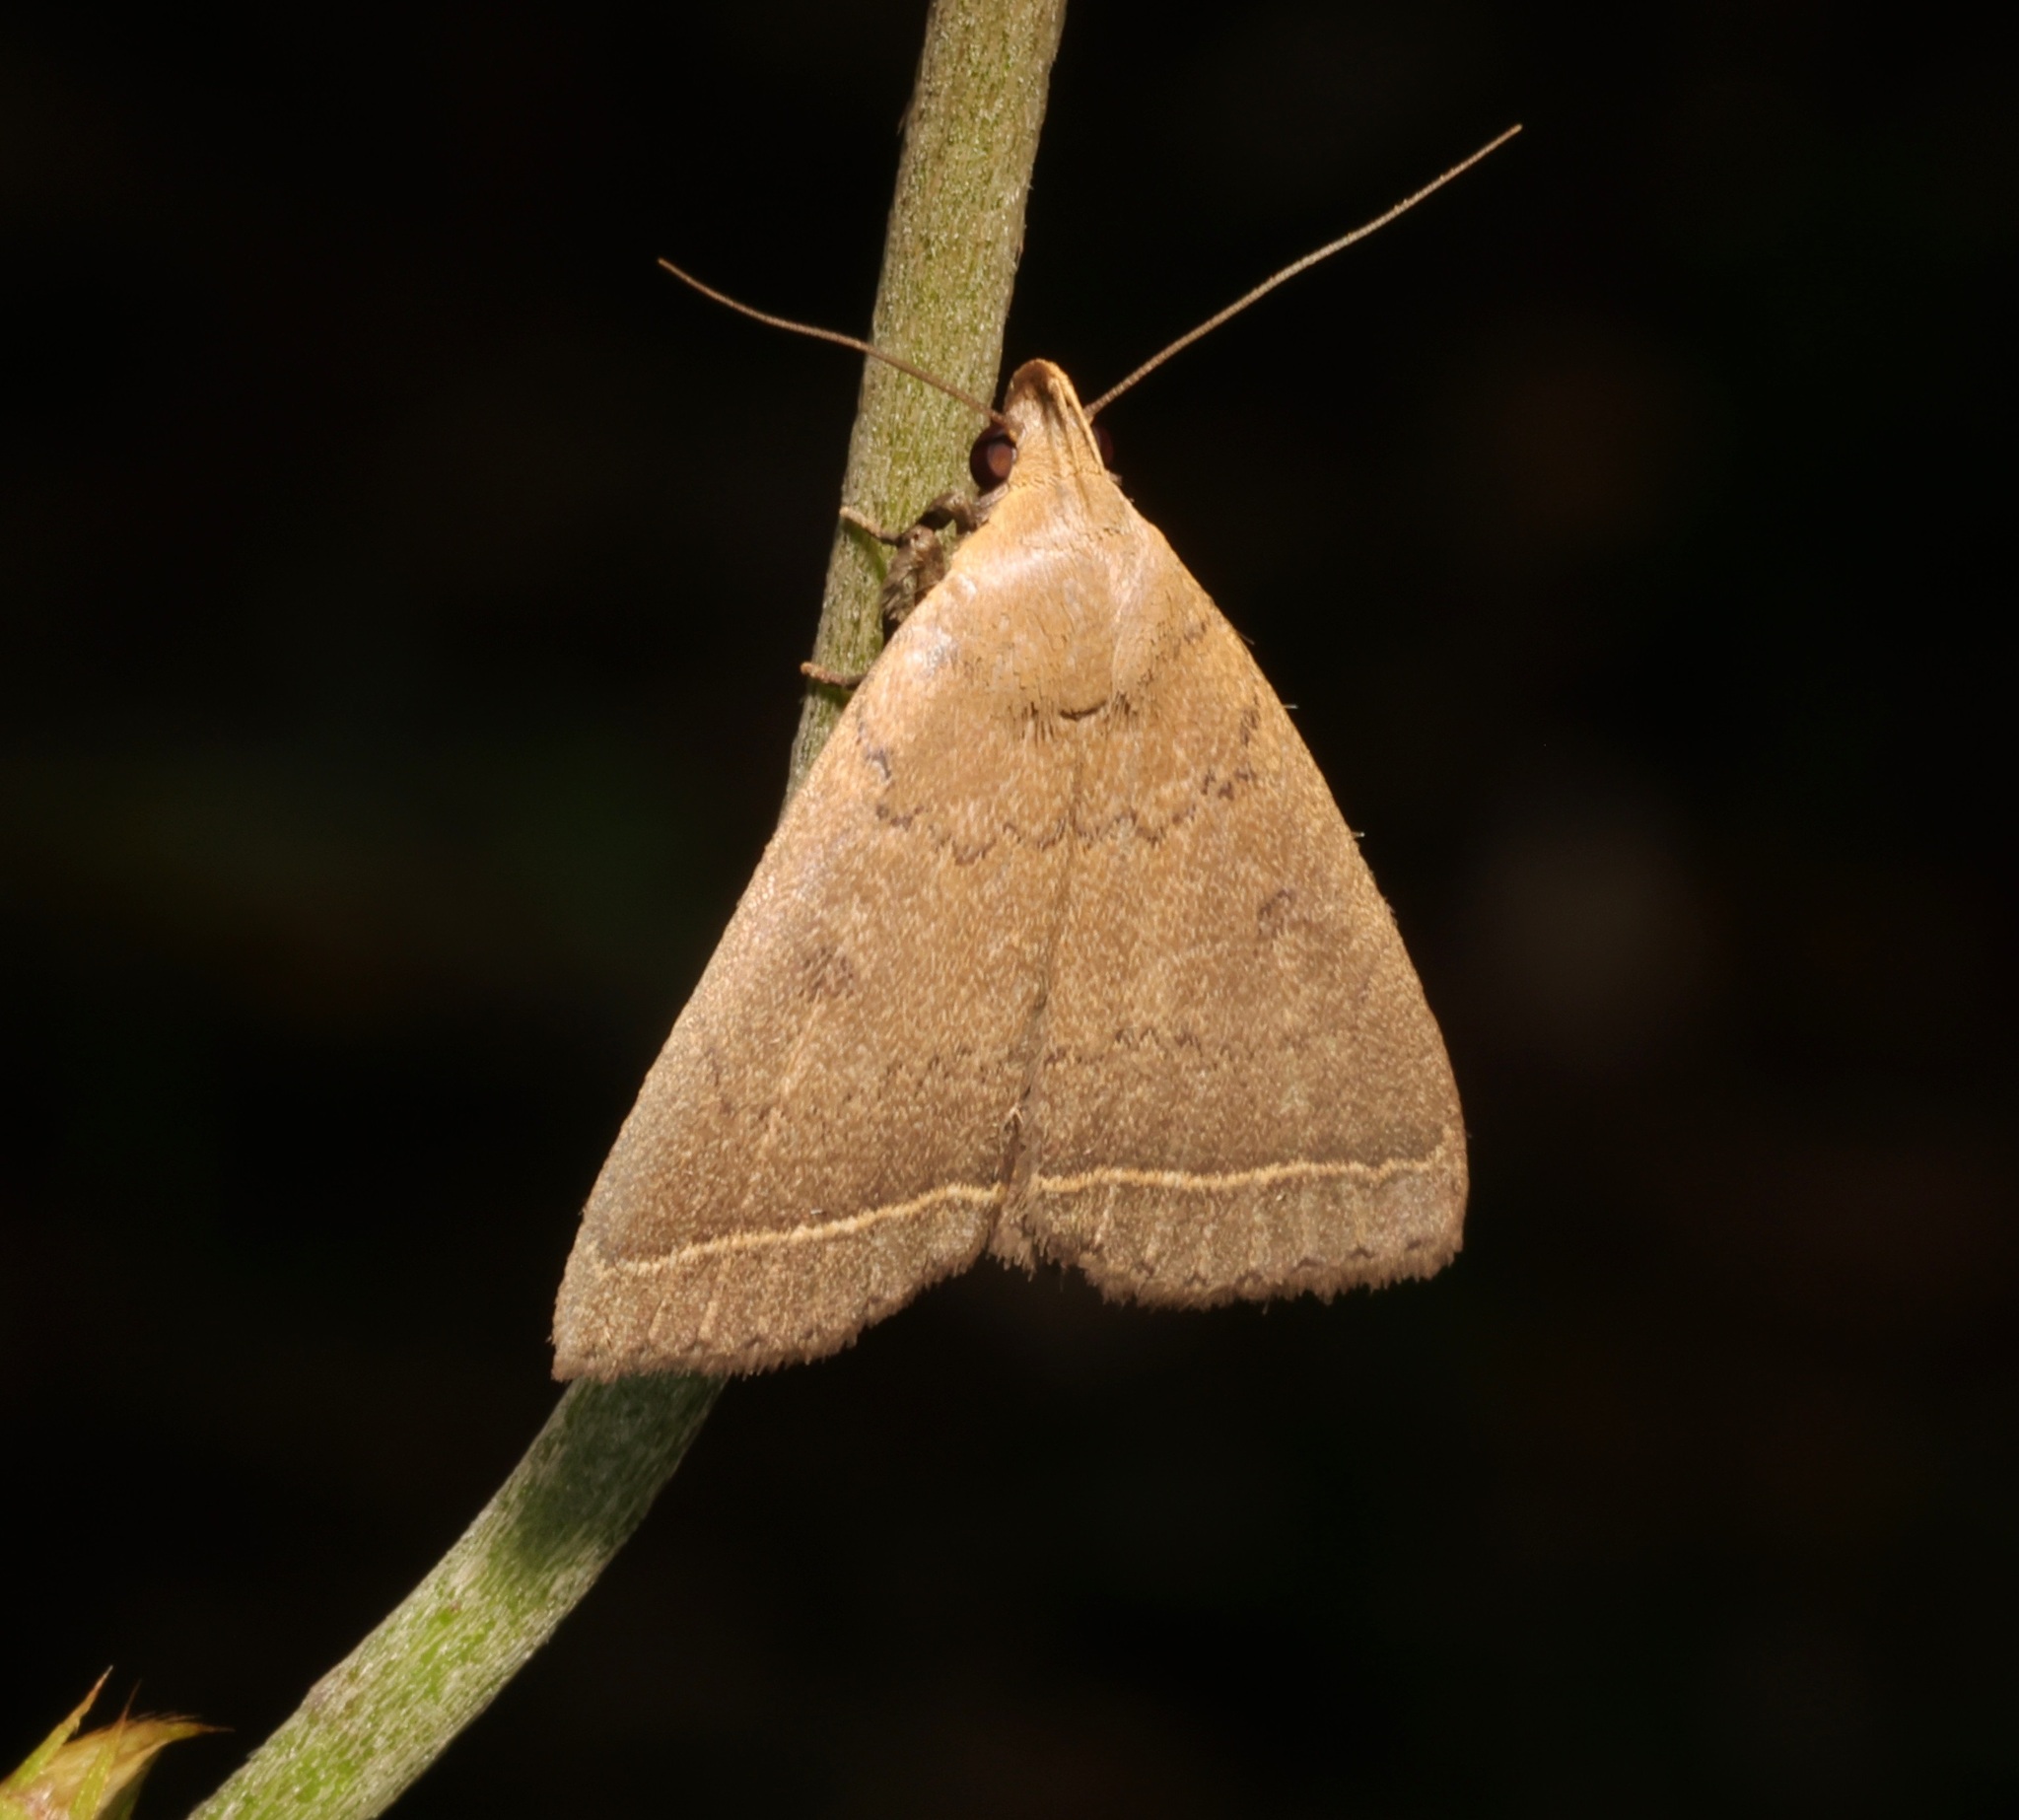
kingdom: Animalia
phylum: Arthropoda
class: Insecta
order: Lepidoptera
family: Erebidae
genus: Simplicia
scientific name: Simplicia cornicalis
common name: Tiki hut litter moth
